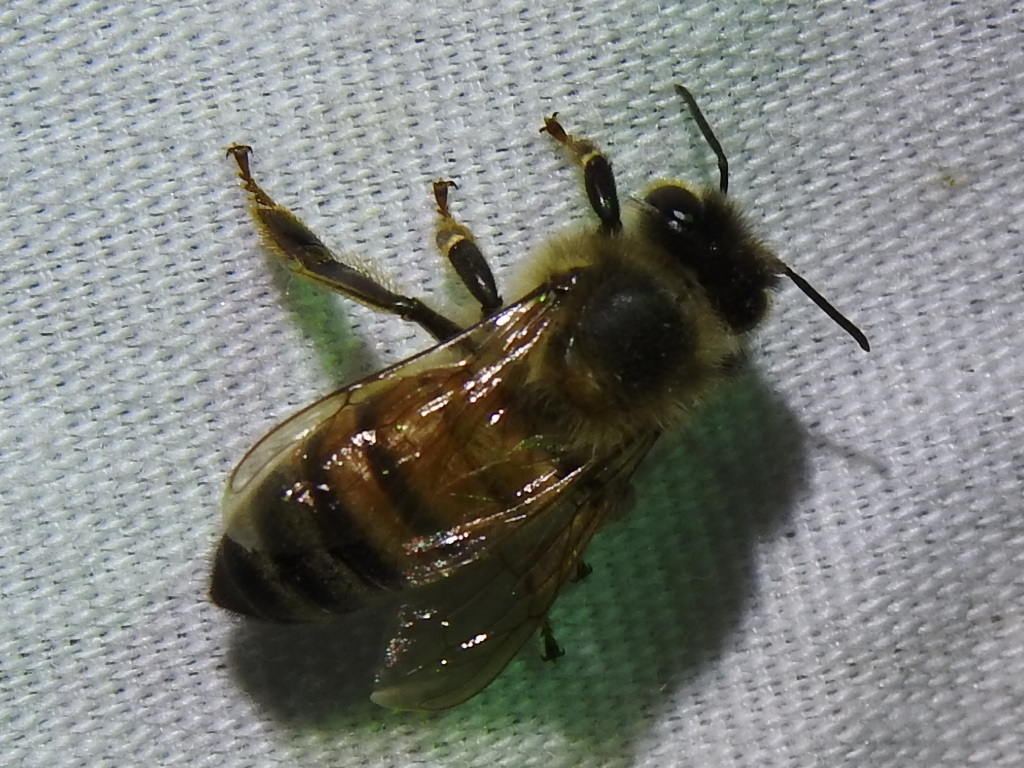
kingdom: Animalia
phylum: Arthropoda
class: Insecta
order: Hymenoptera
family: Apidae
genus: Apis
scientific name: Apis mellifera
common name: Honey bee
